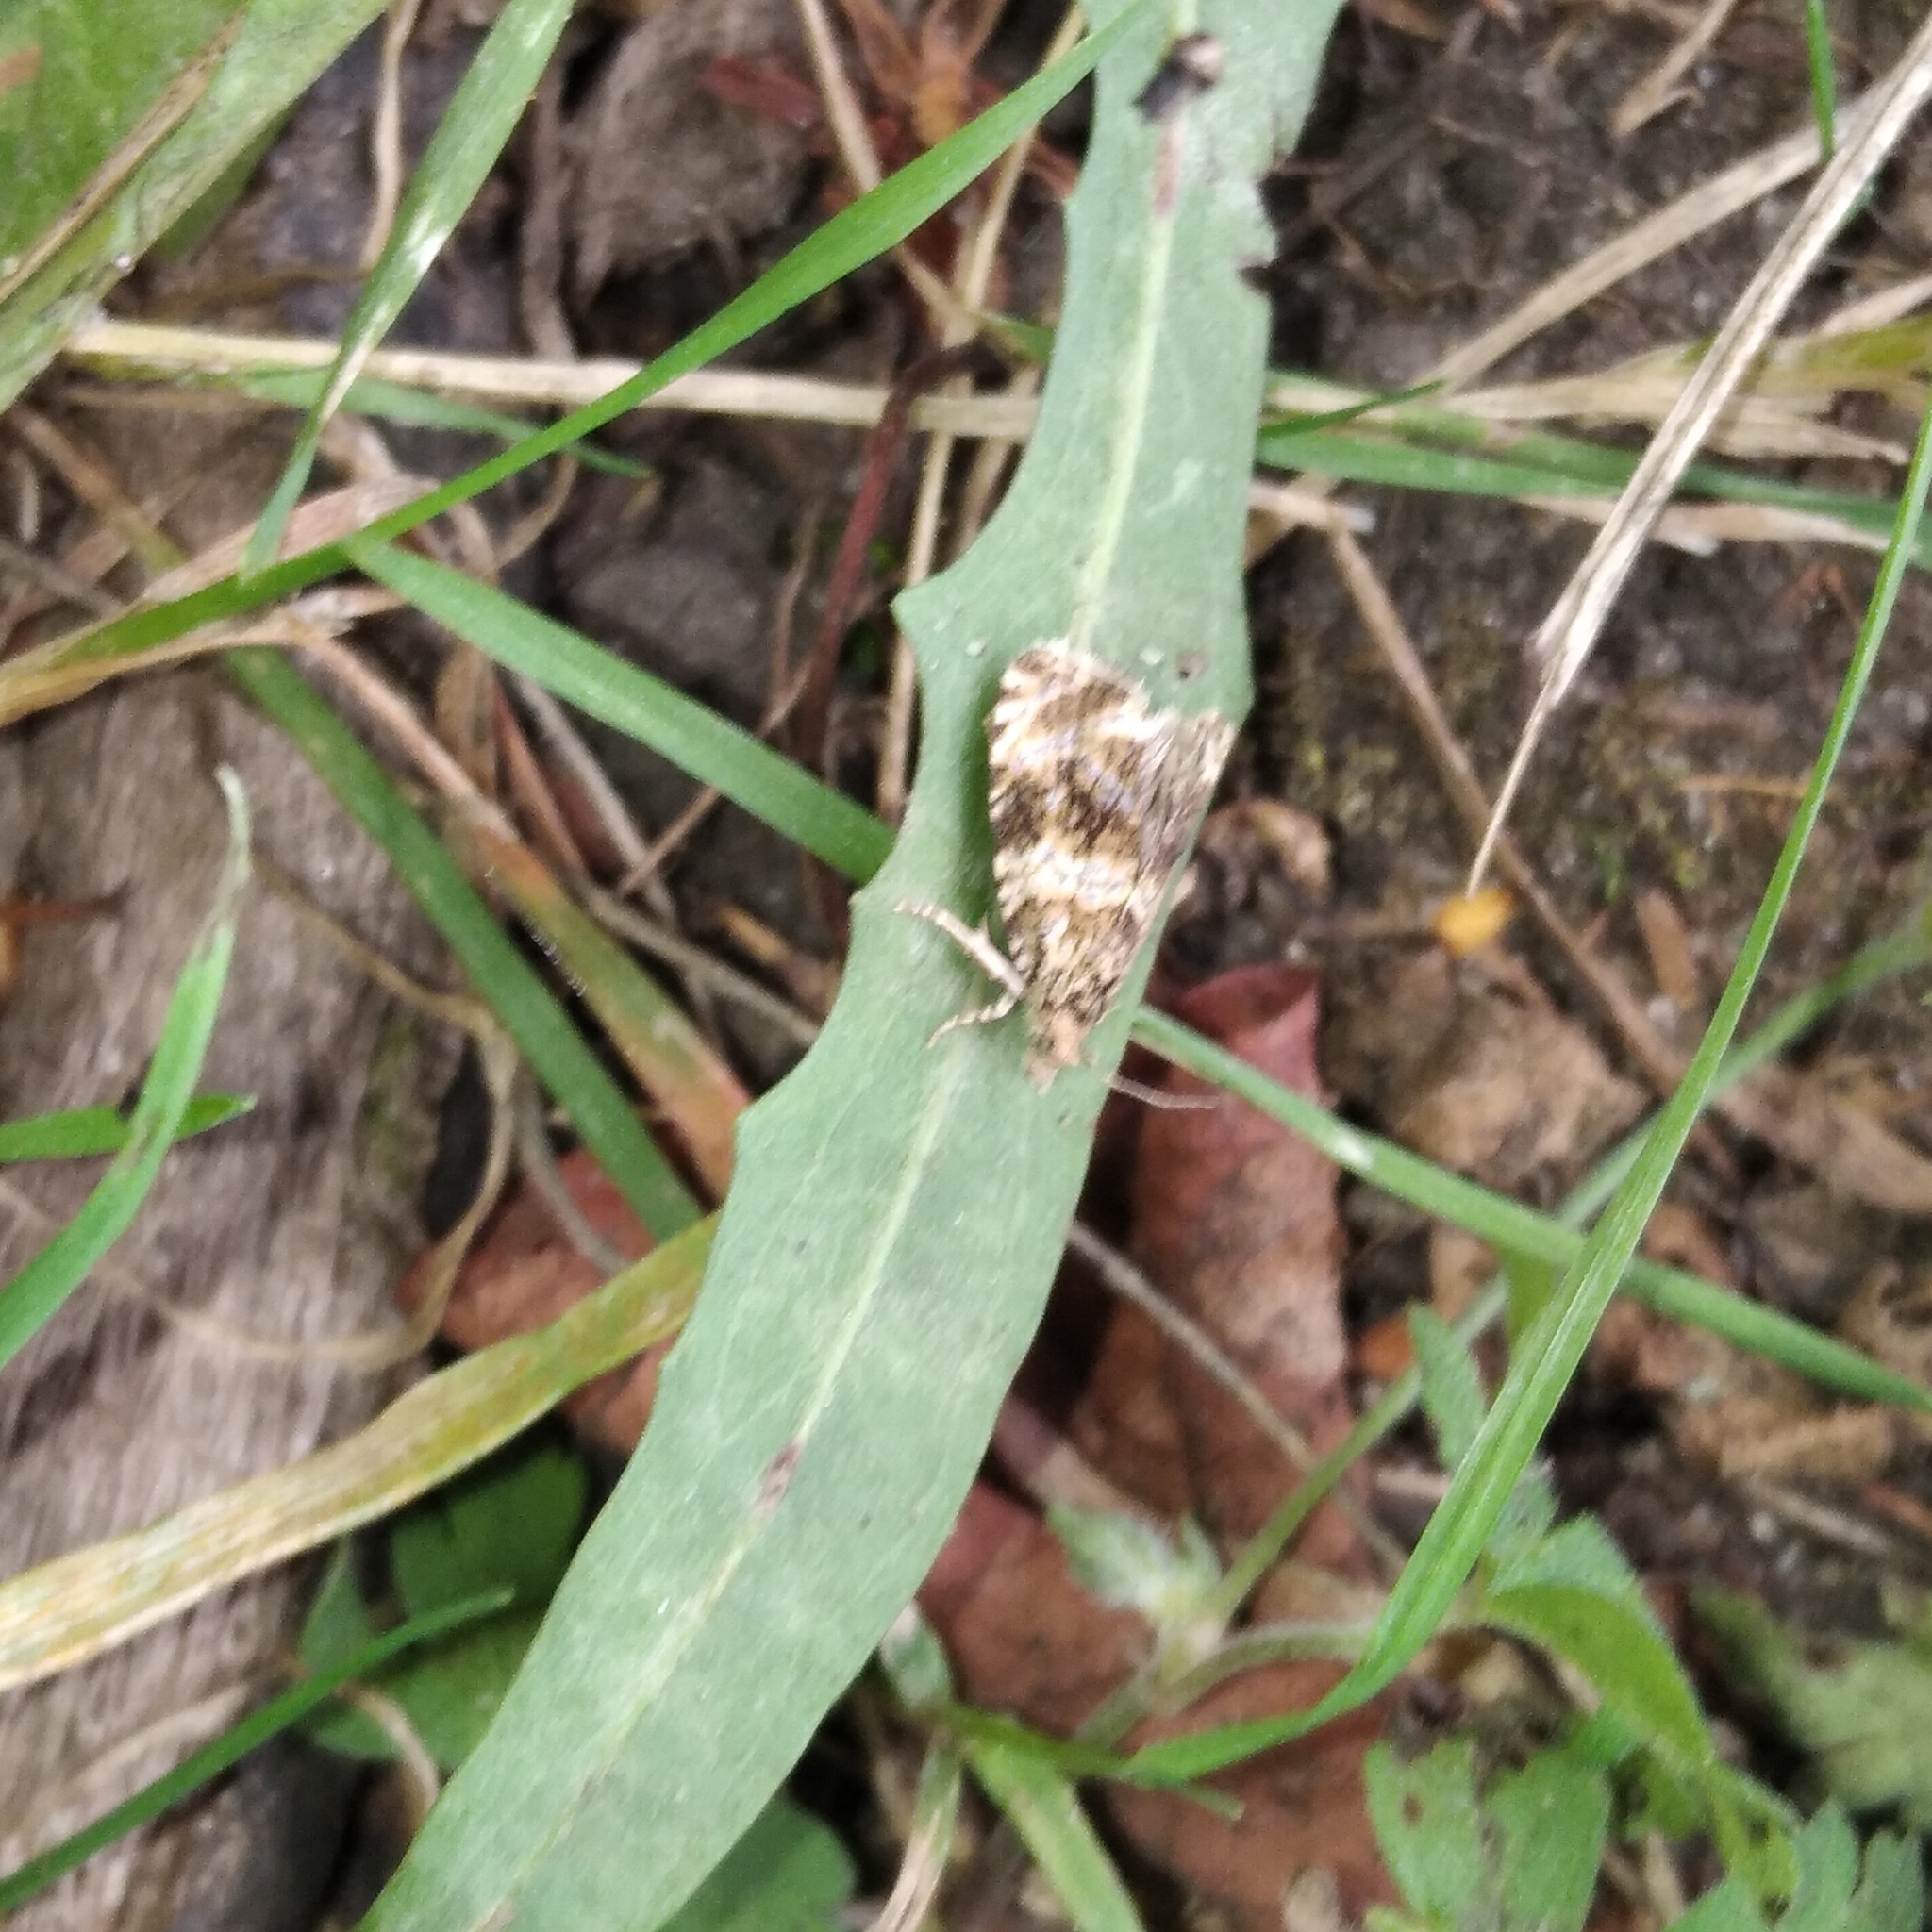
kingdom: Animalia
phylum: Arthropoda
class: Insecta
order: Lepidoptera
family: Tortricidae
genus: Syricoris
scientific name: Syricoris lacunana
